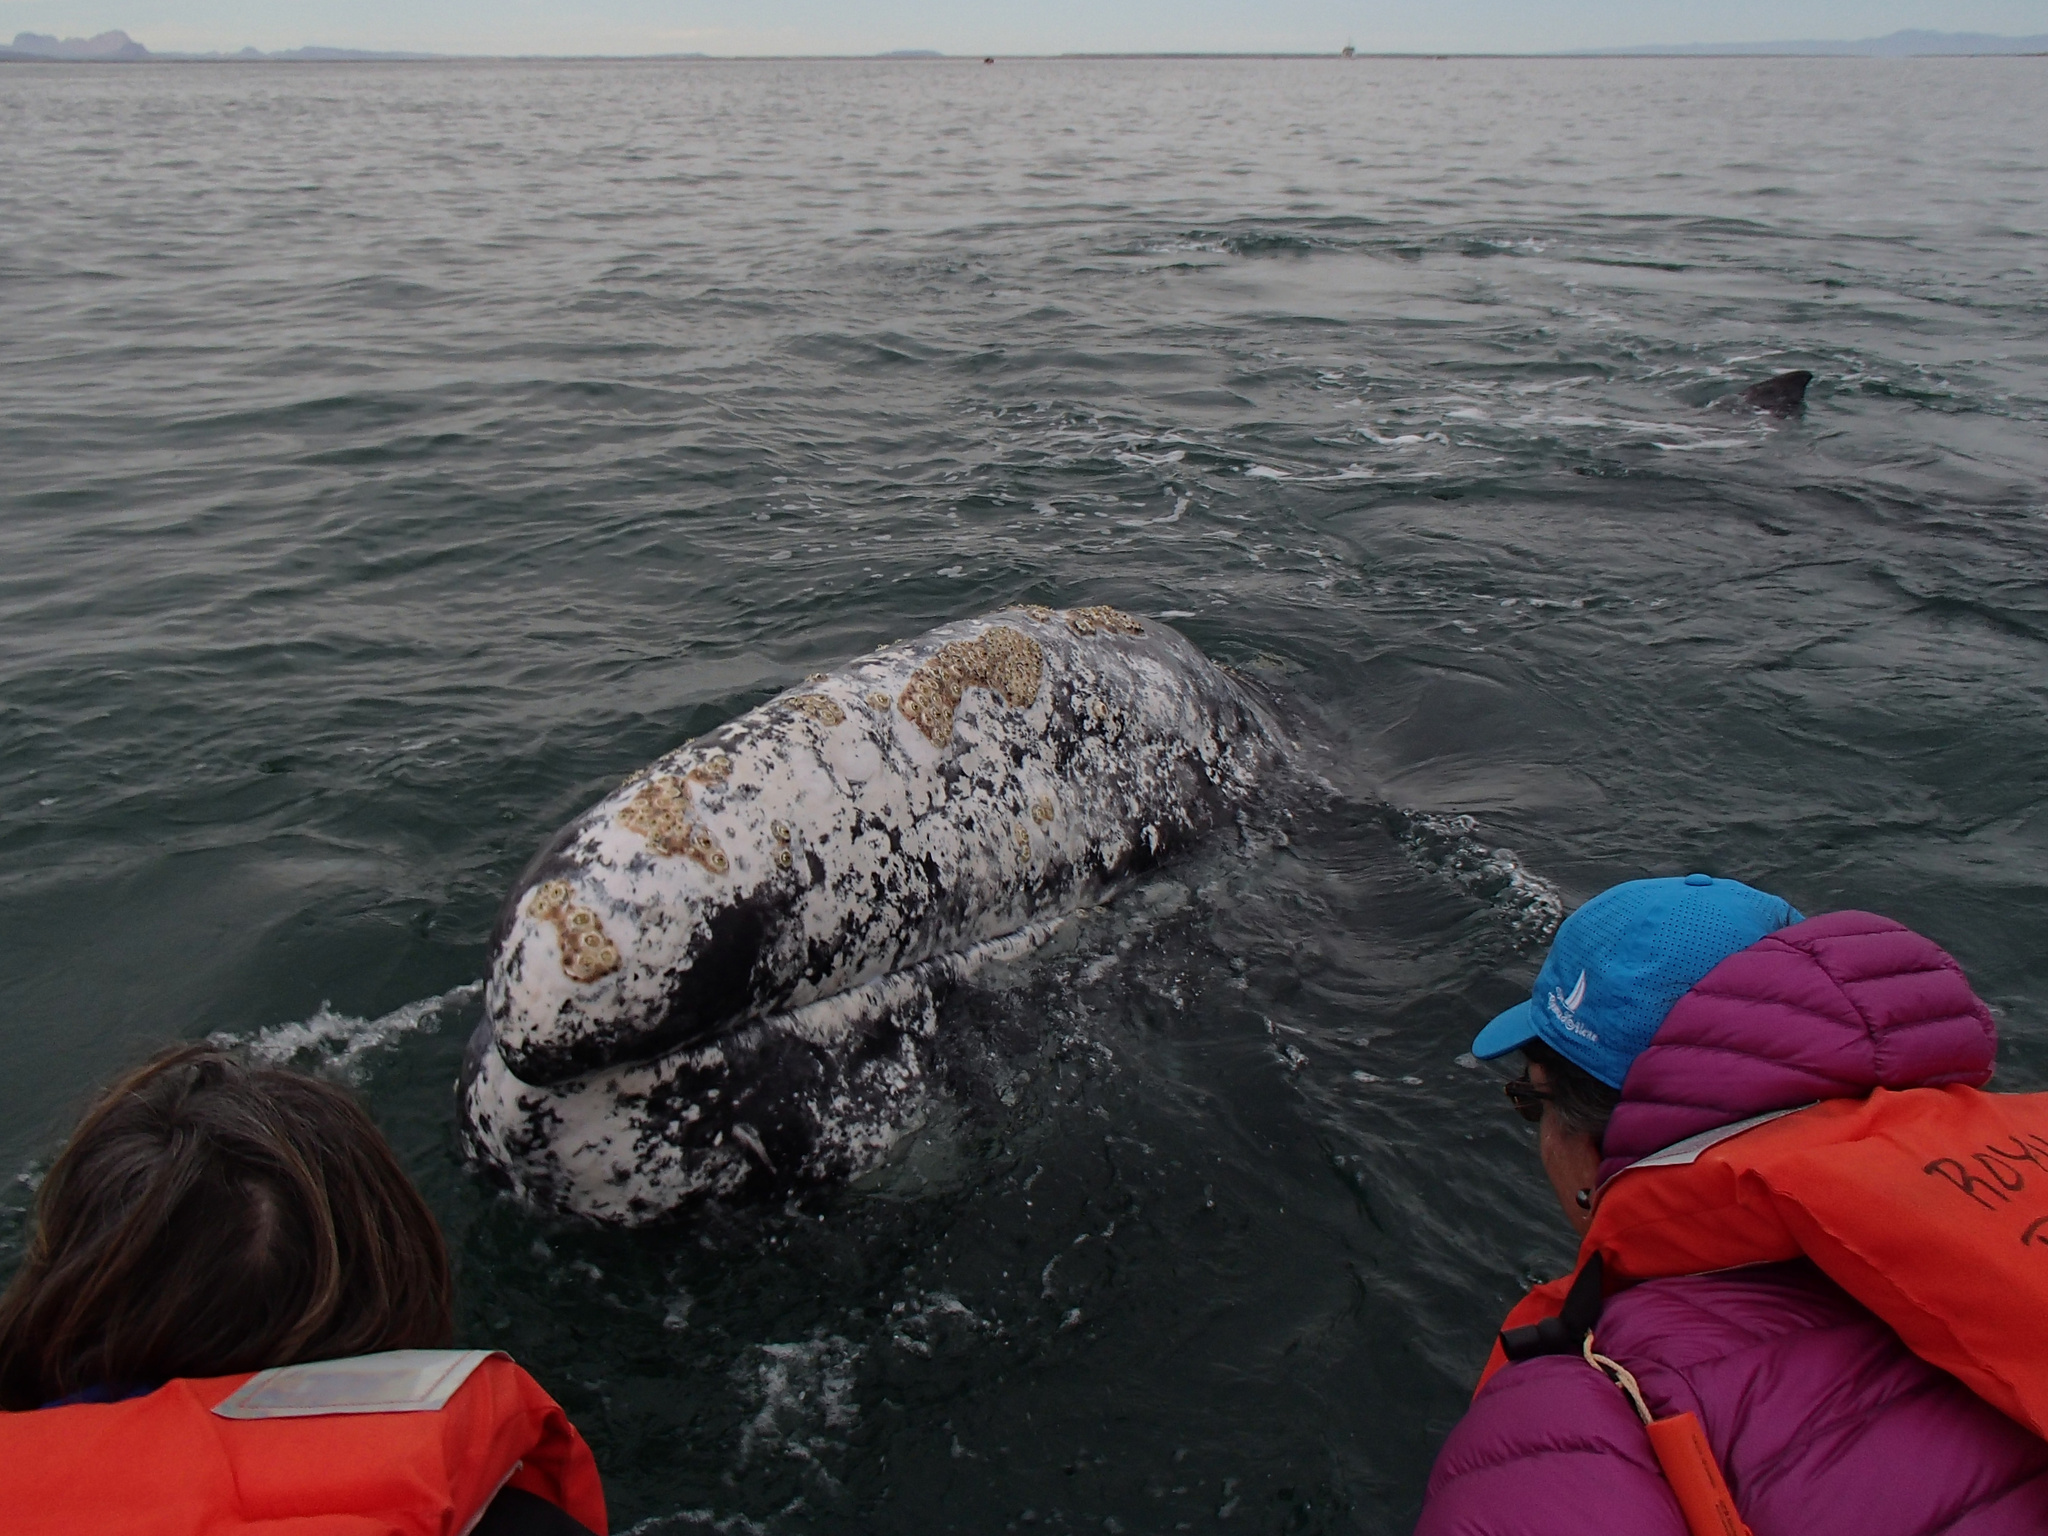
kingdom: Animalia
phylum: Chordata
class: Mammalia
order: Cetacea
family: Eschrichtiidae
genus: Eschrichtius
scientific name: Eschrichtius robustus
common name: Gray whale
